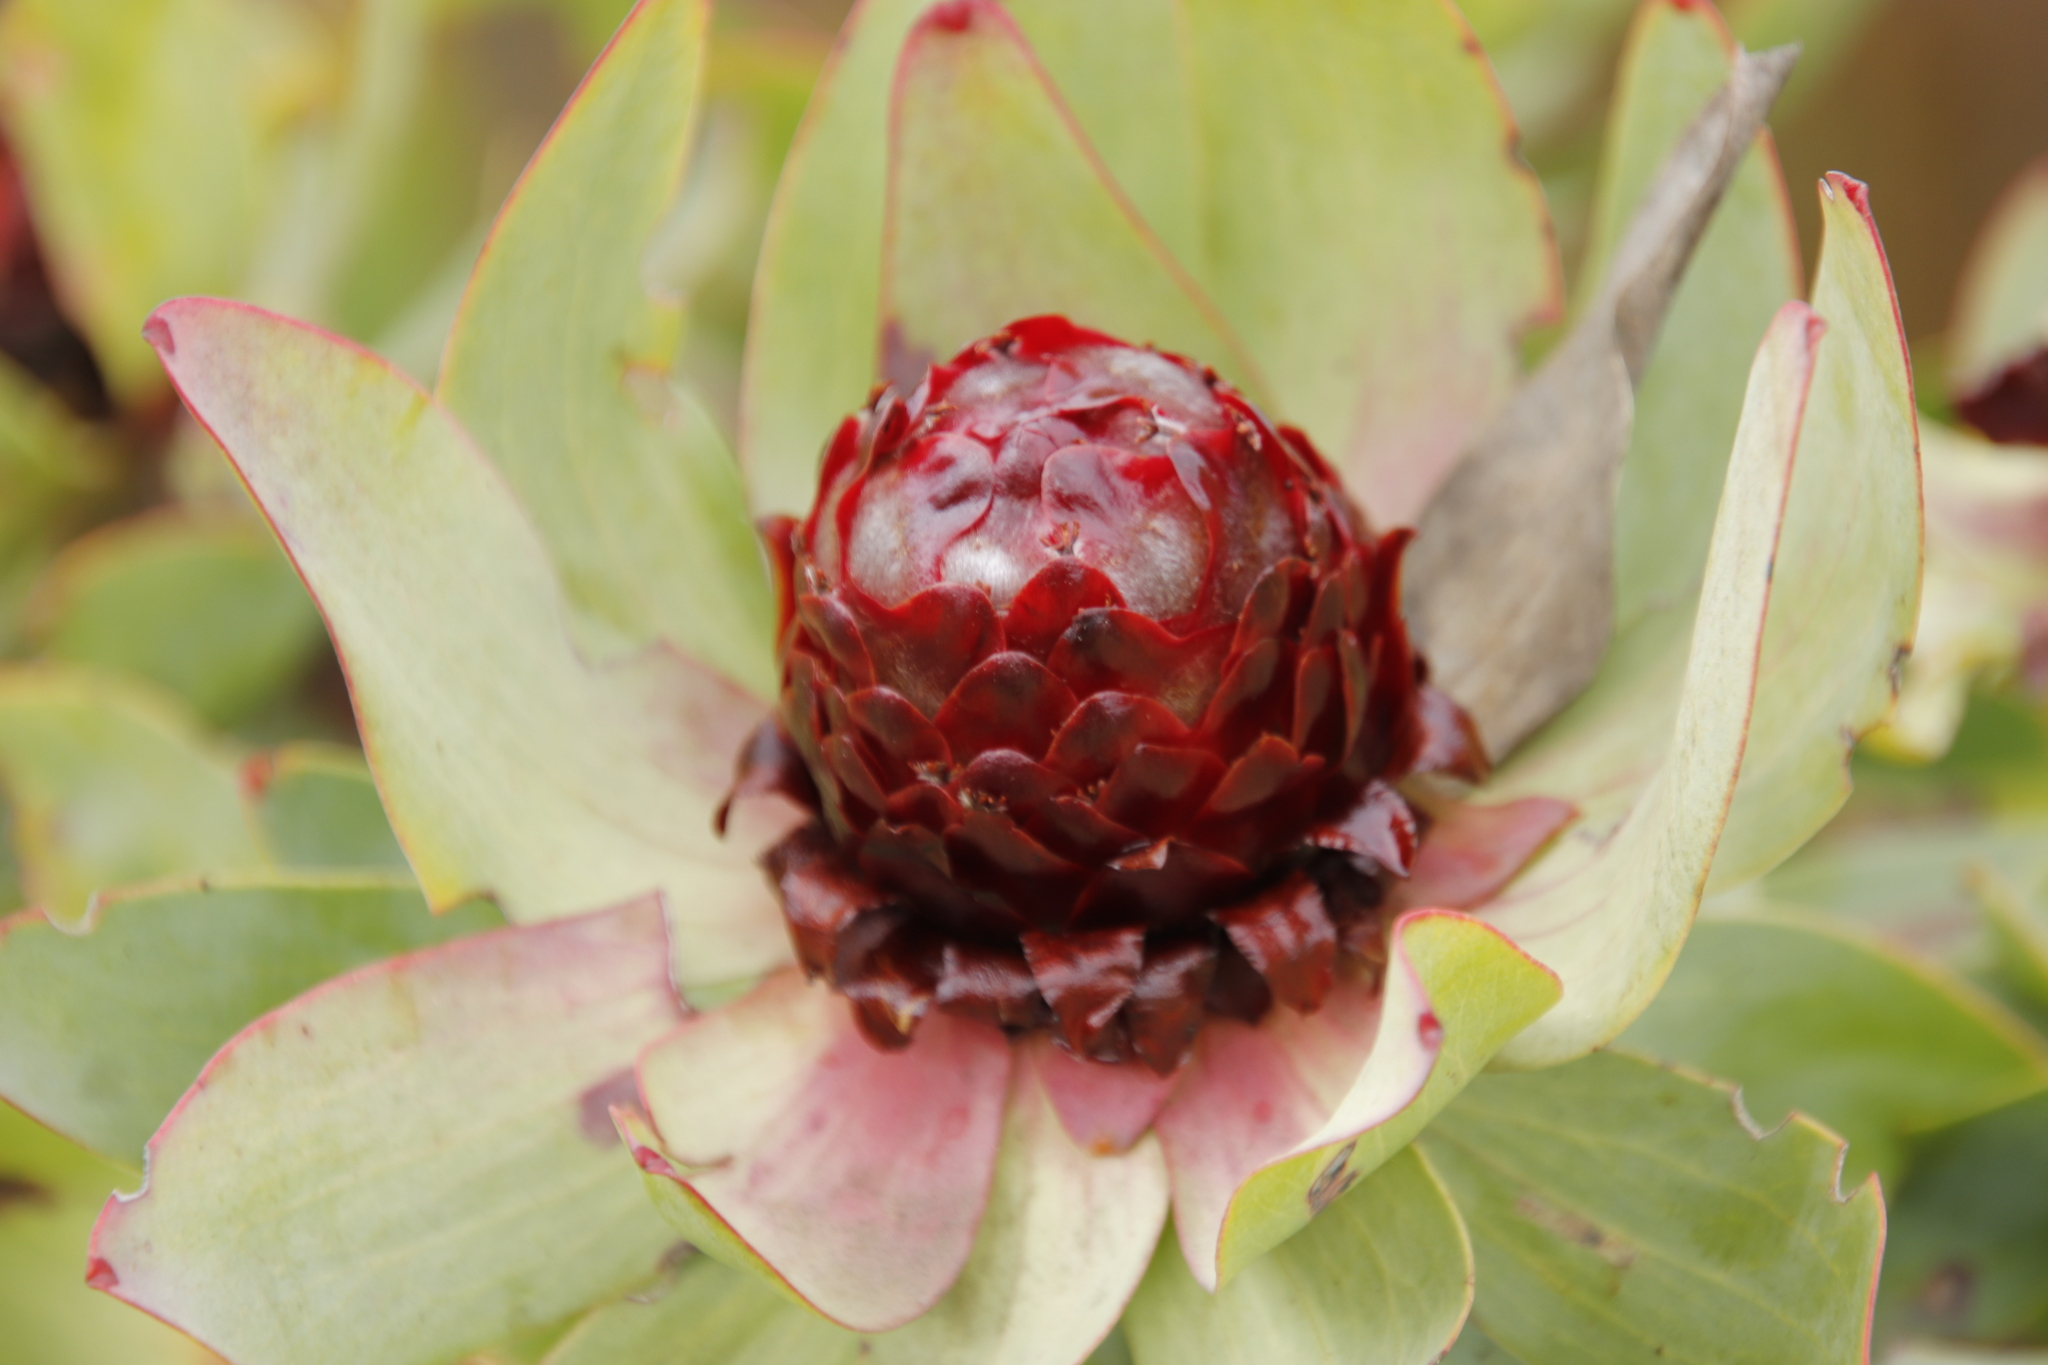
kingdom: Plantae
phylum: Tracheophyta
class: Magnoliopsida
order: Proteales
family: Proteaceae
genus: Leucadendron
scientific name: Leucadendron tinctum
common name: Spicy conebush
